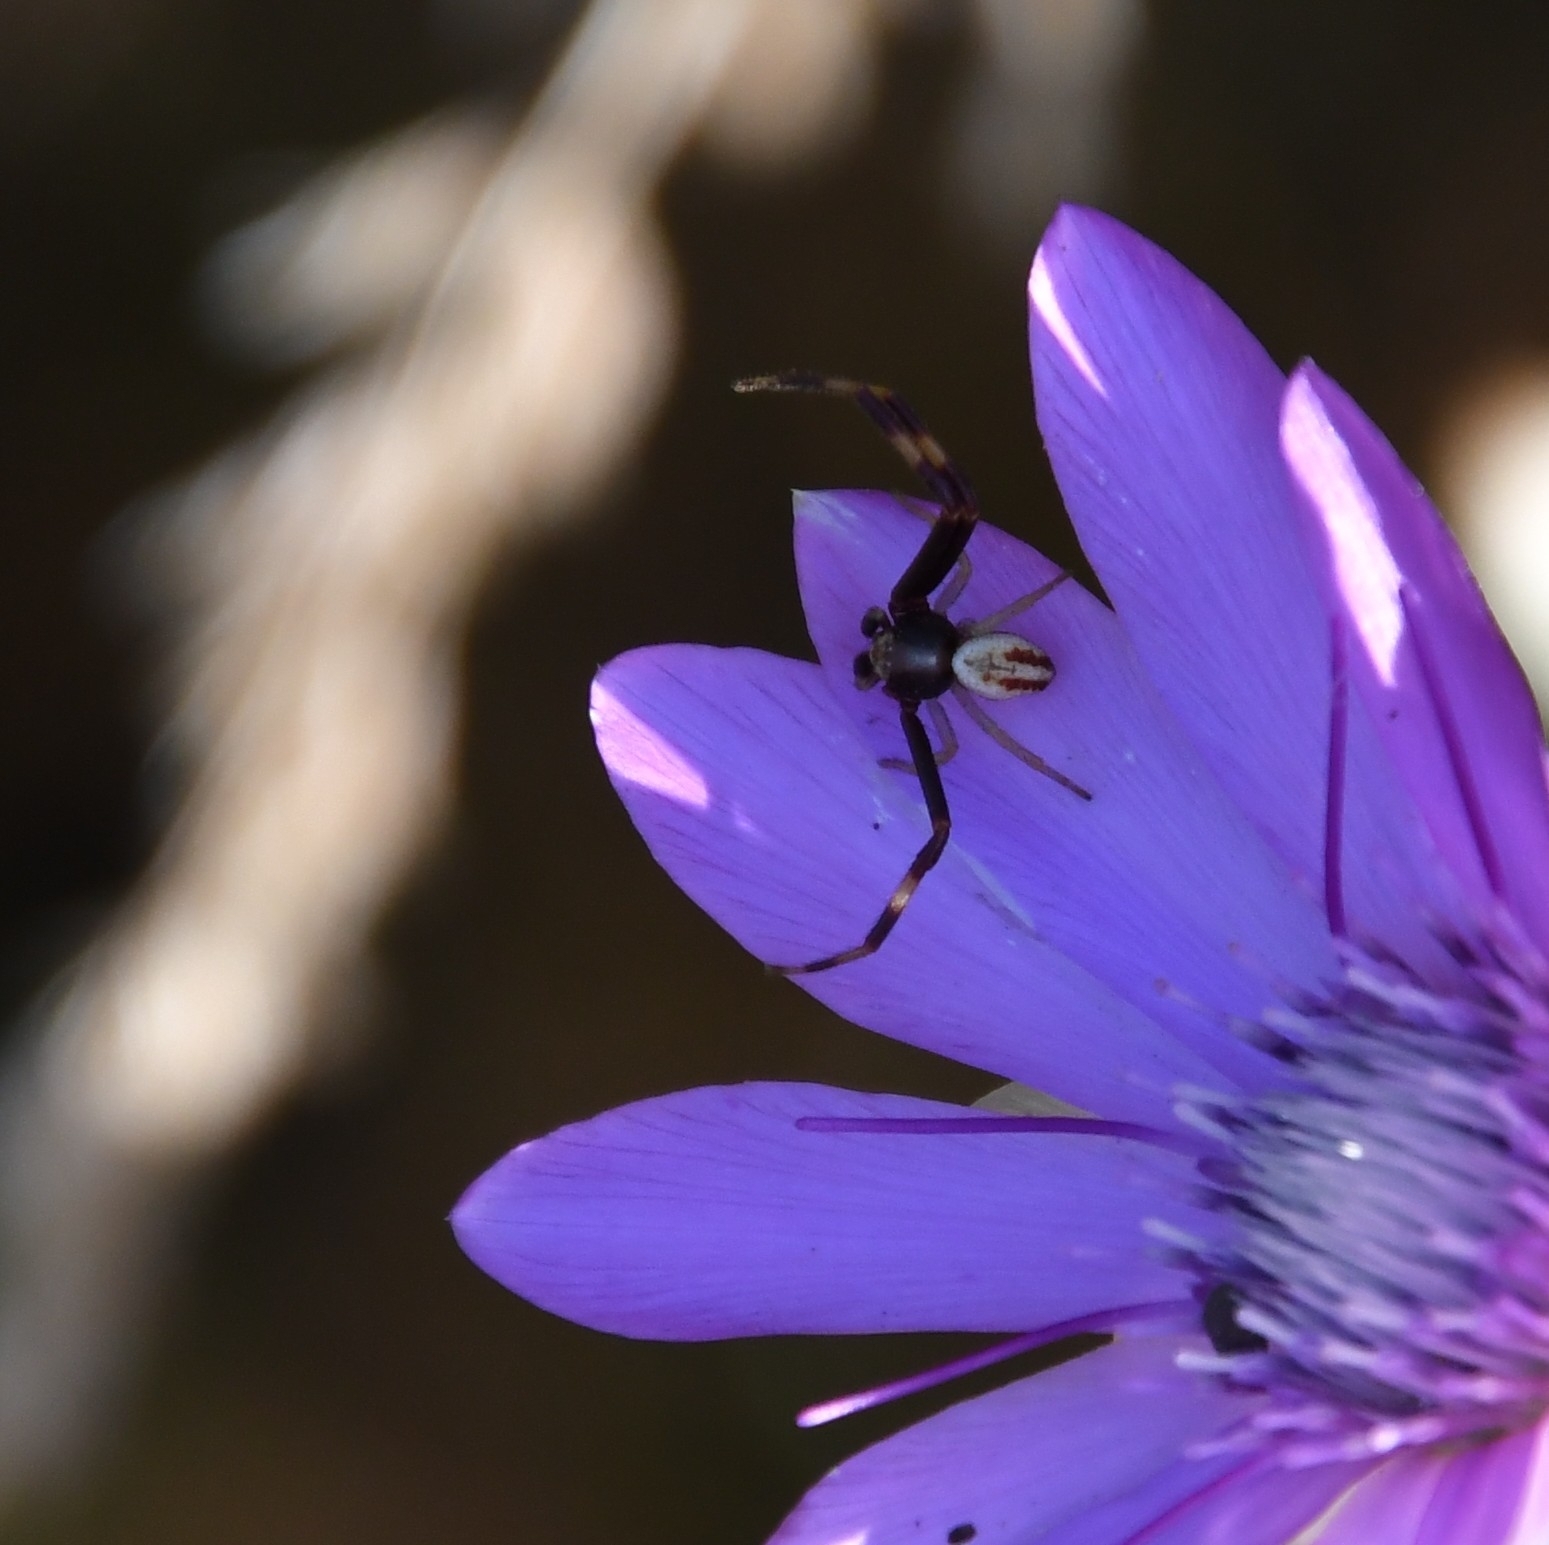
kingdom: Animalia
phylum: Arthropoda
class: Arachnida
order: Araneae
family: Thomisidae
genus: Misumena
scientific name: Misumena vatia
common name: Goldenrod crab spider
